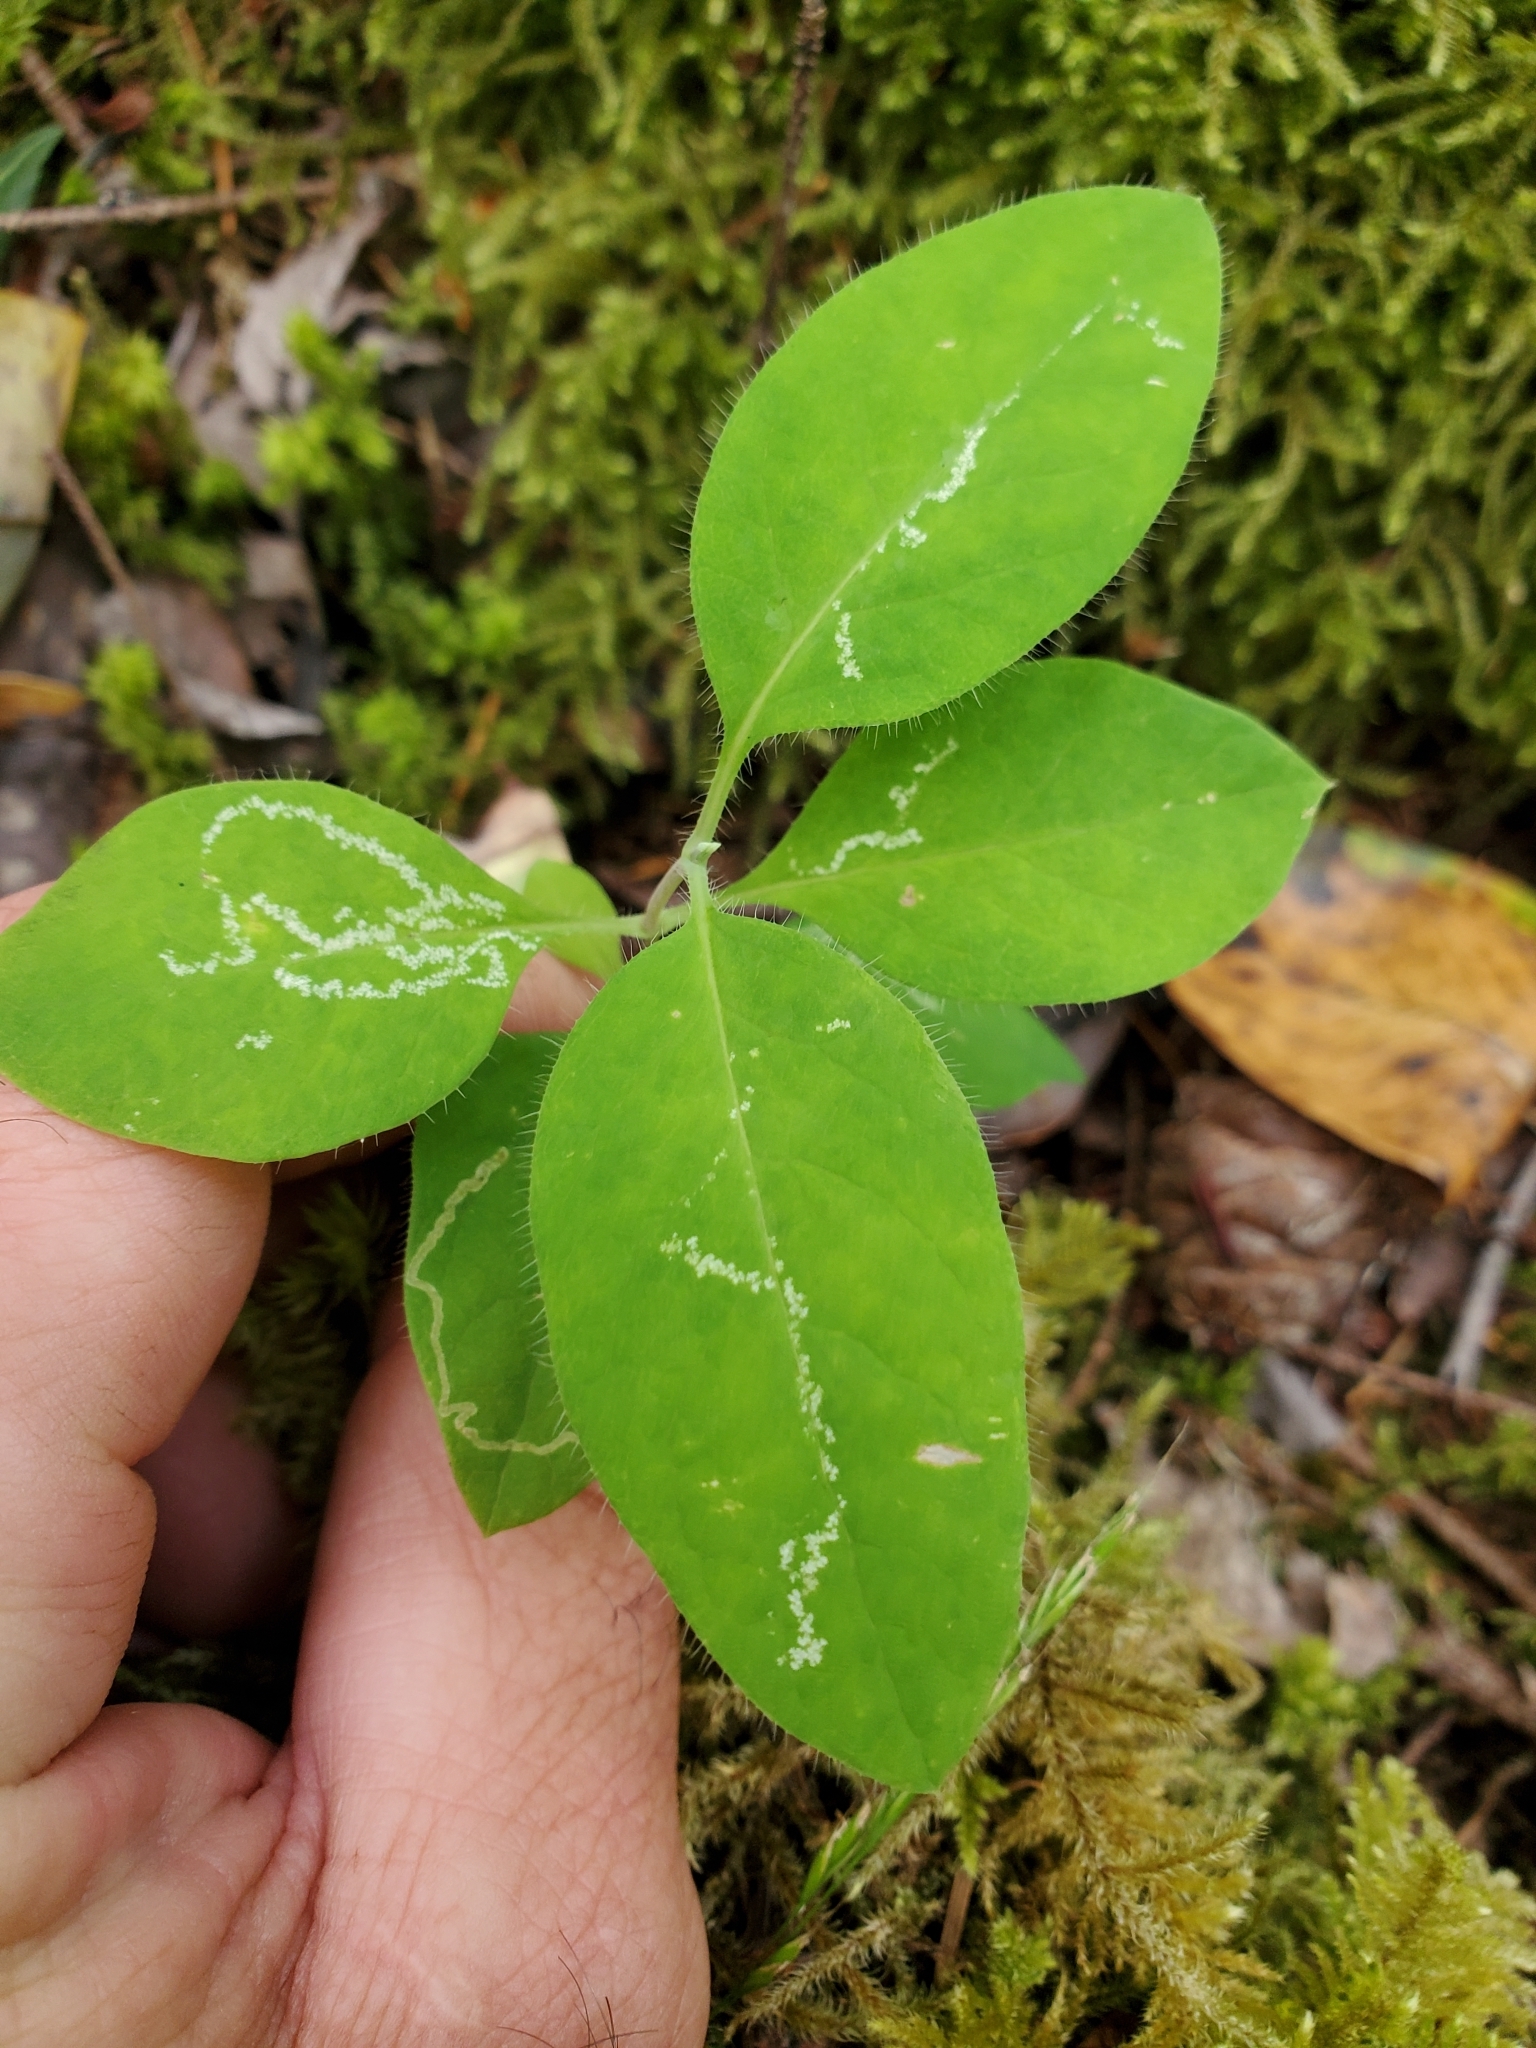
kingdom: Plantae
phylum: Tracheophyta
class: Magnoliopsida
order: Dipsacales
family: Caprifoliaceae
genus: Lonicera
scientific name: Lonicera ciliosa
